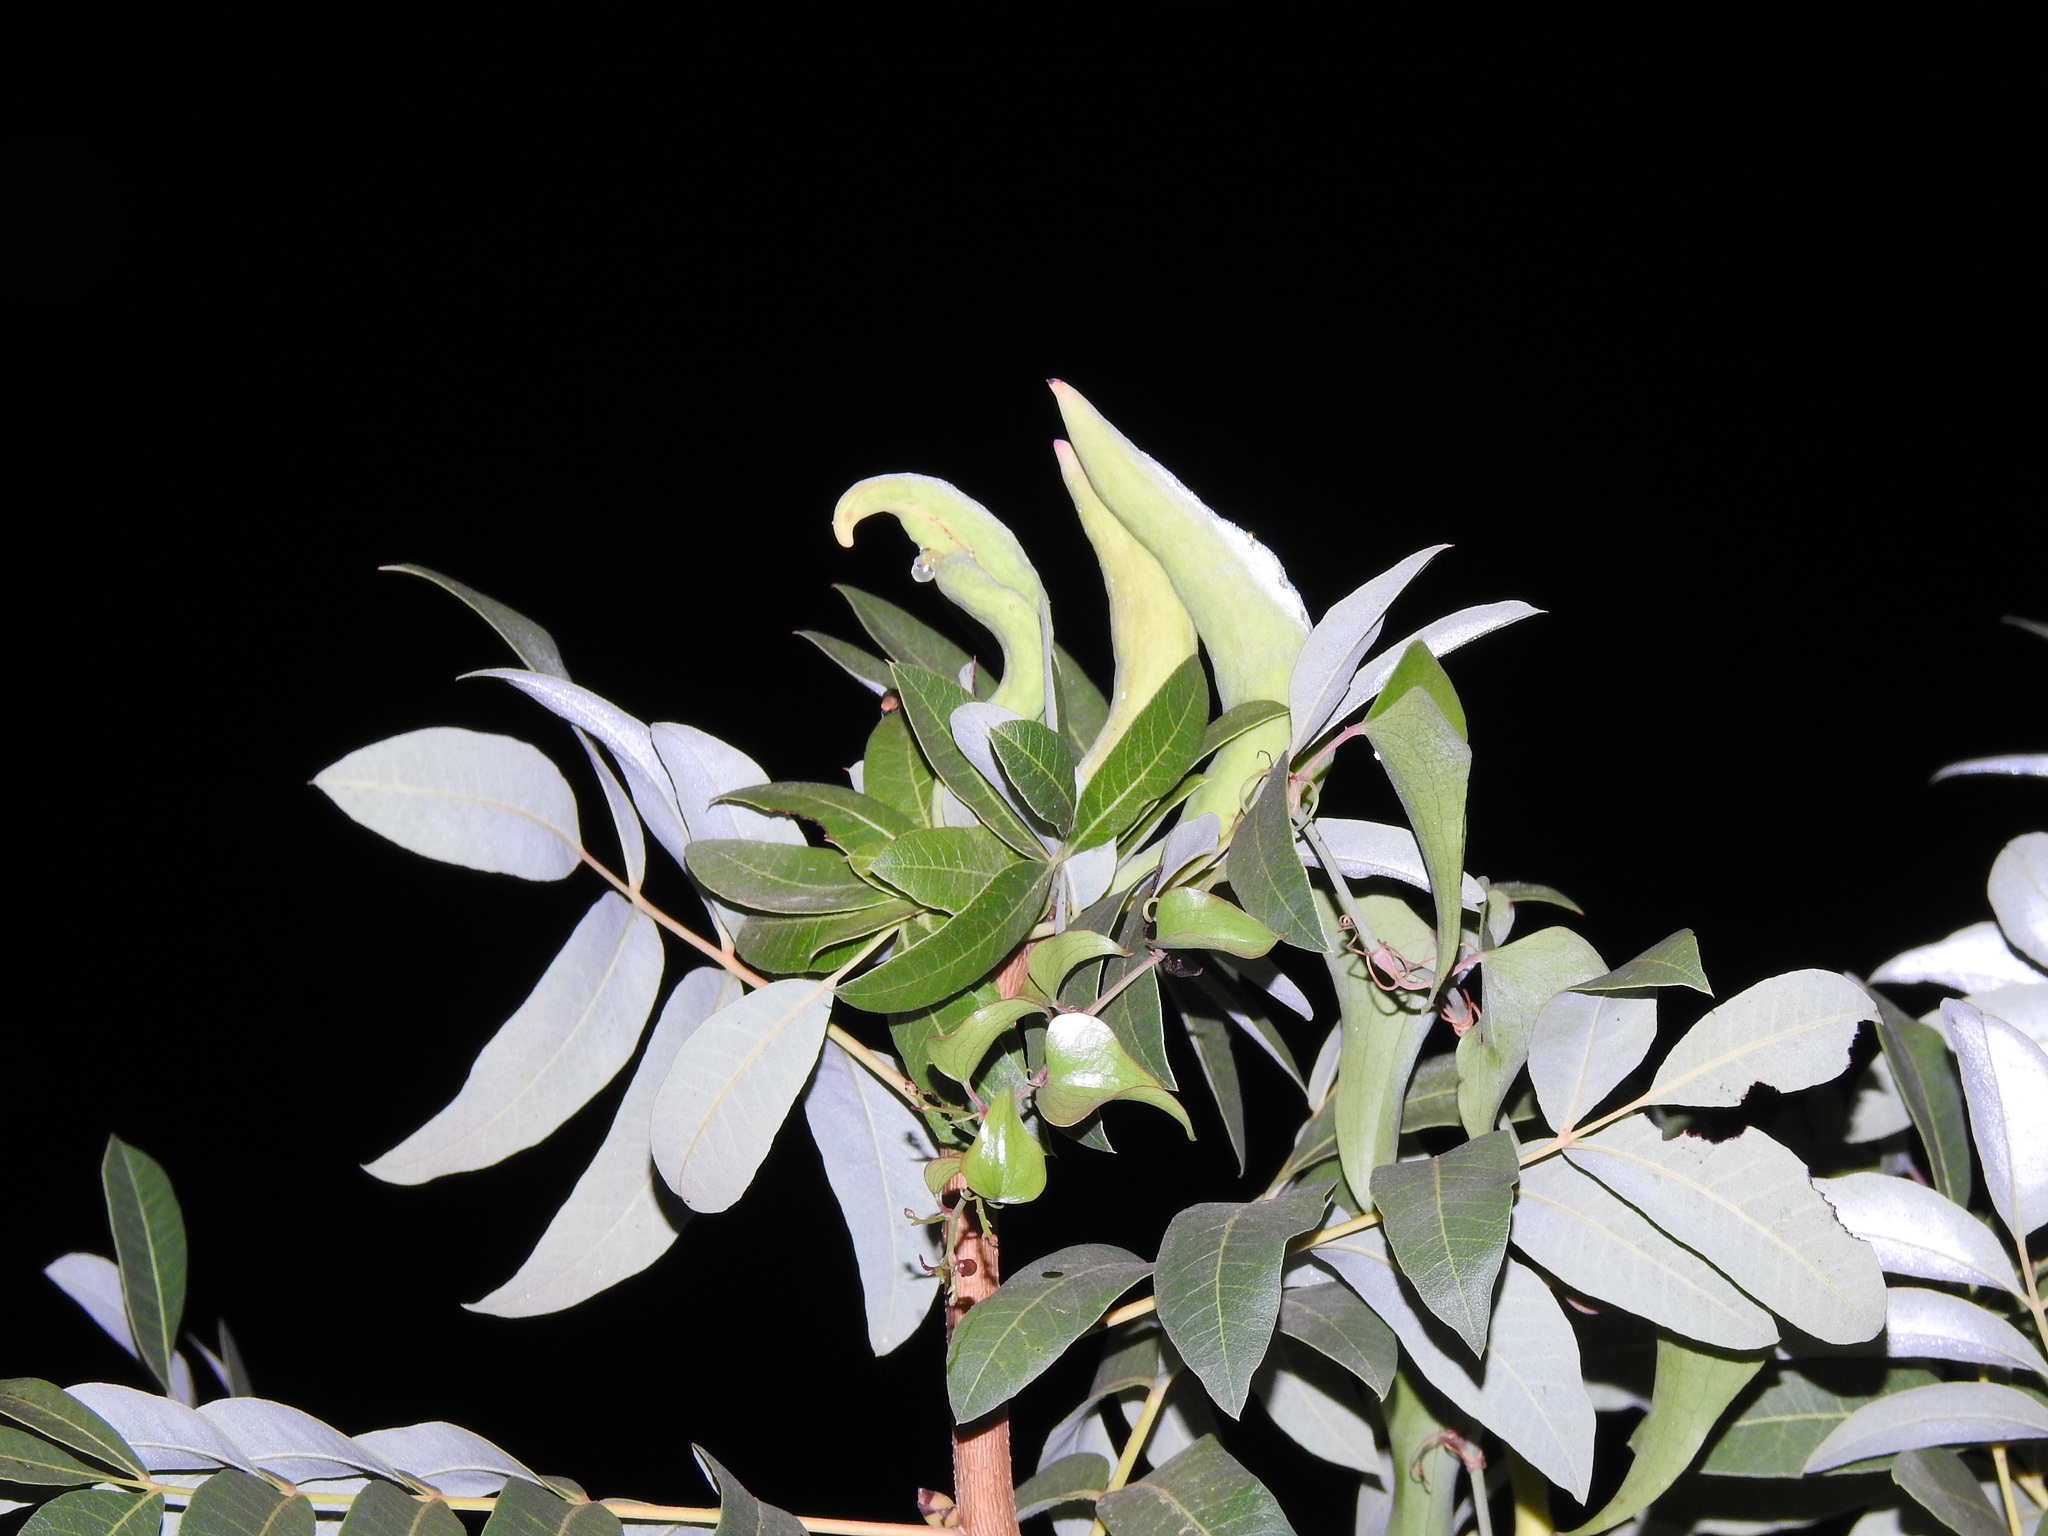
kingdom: Animalia
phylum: Arthropoda
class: Insecta
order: Hemiptera
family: Aphididae
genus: Baizongia
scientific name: Baizongia pistaciae
